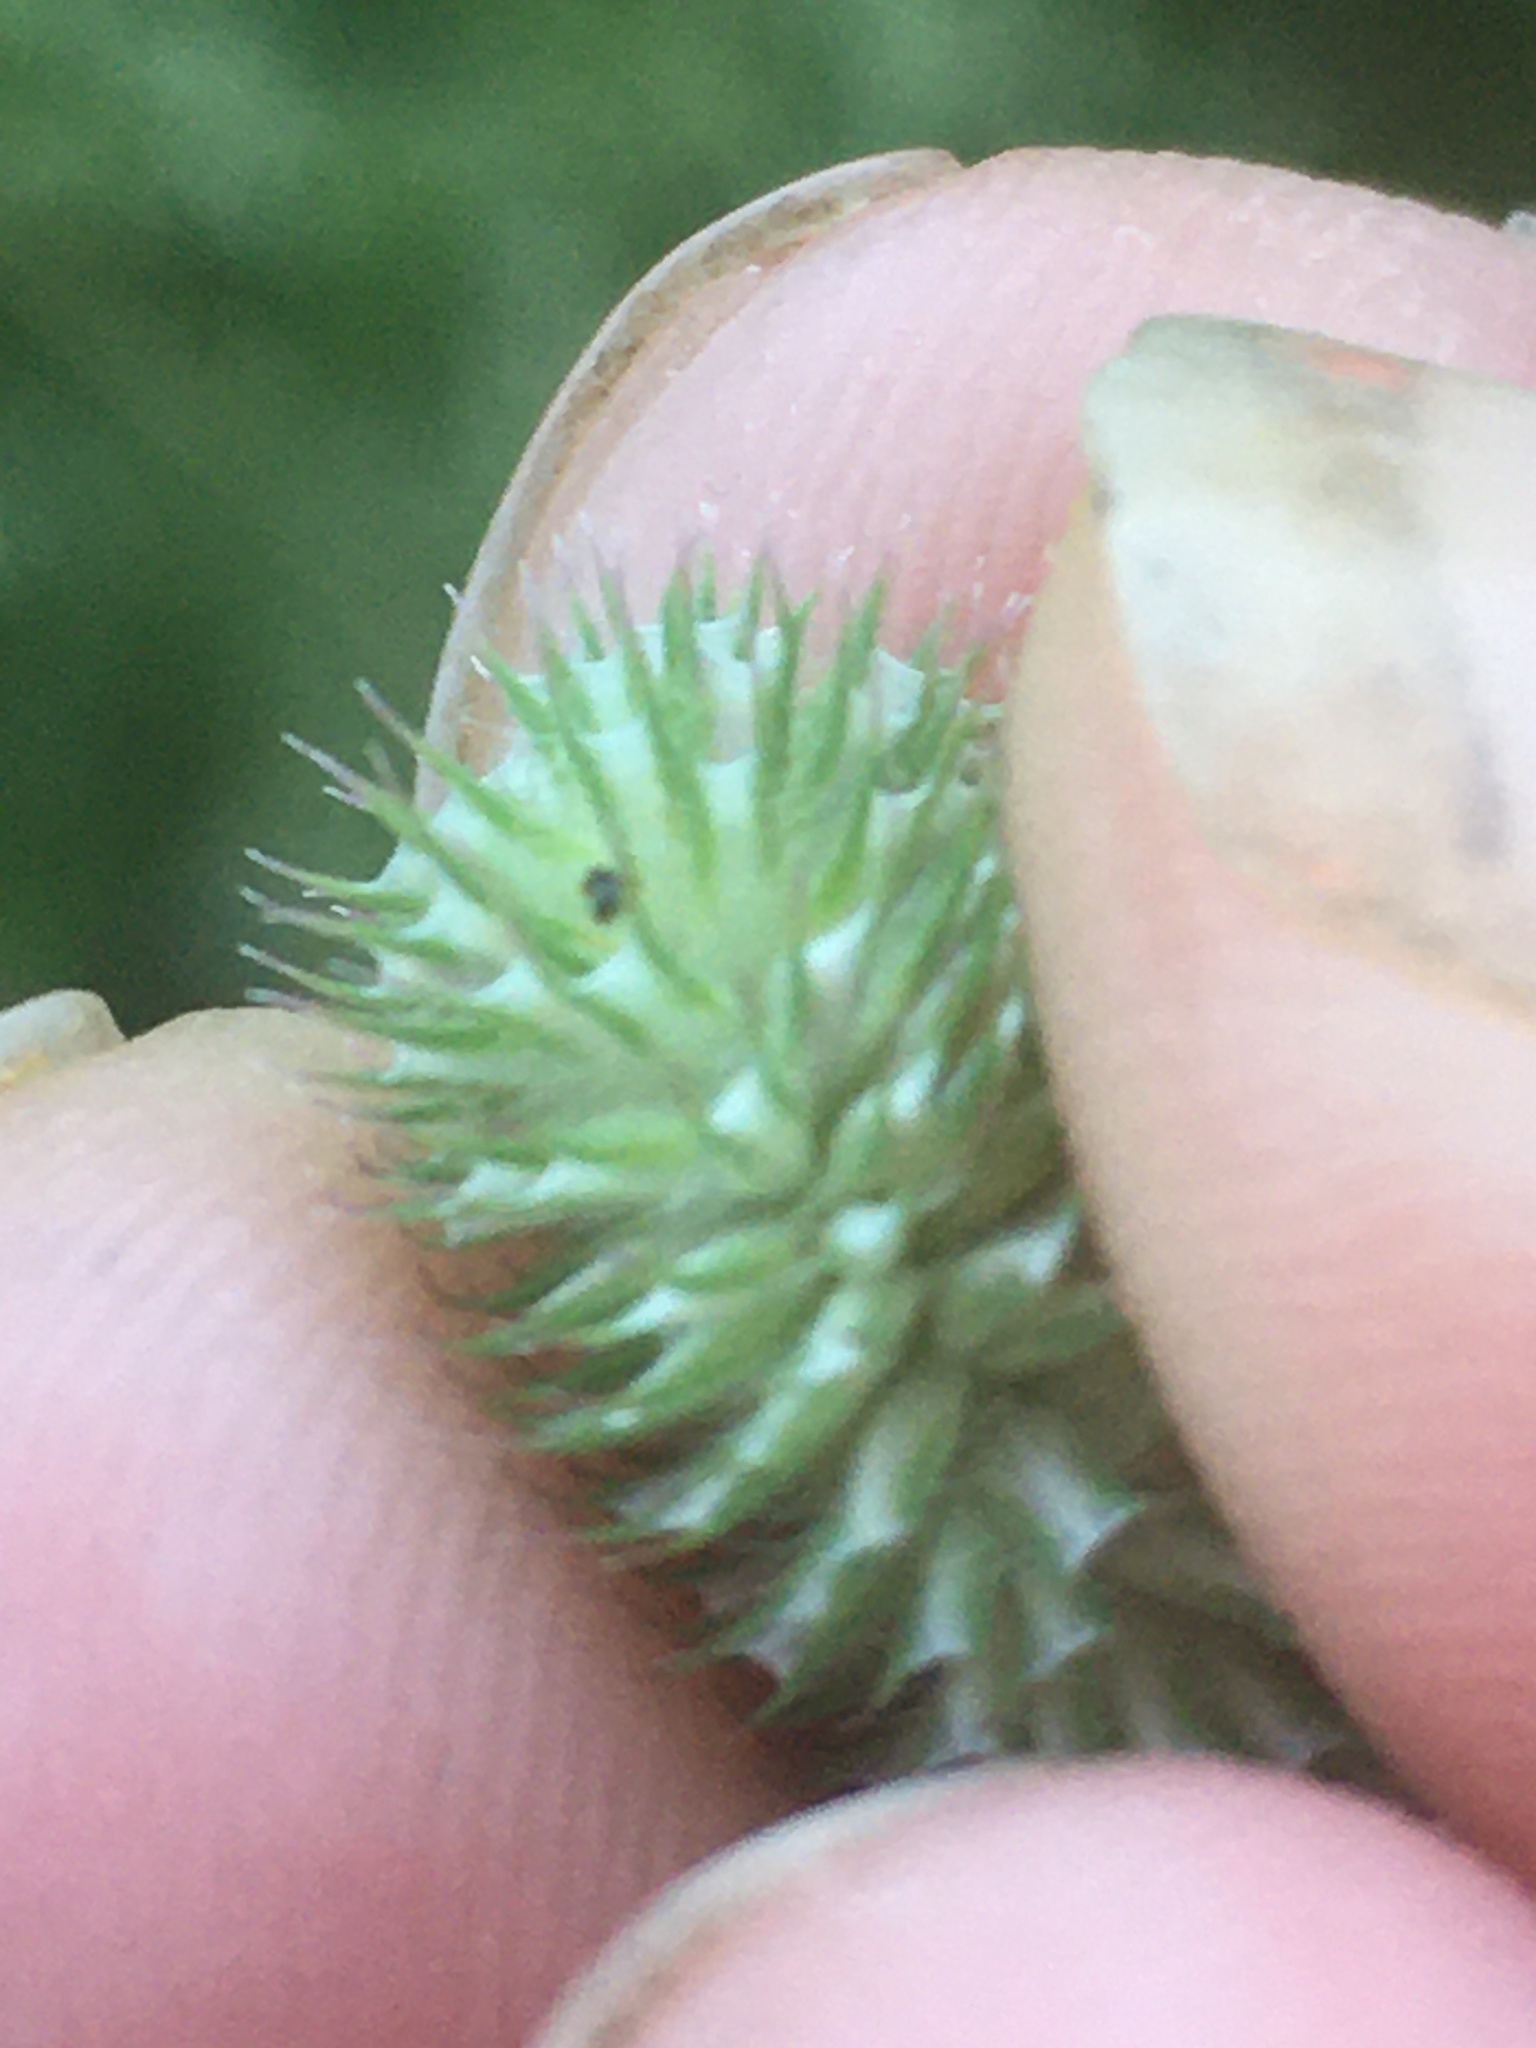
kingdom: Plantae
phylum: Tracheophyta
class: Liliopsida
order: Poales
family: Poaceae
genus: Phleum
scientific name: Phleum pratense
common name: Timothy grass
